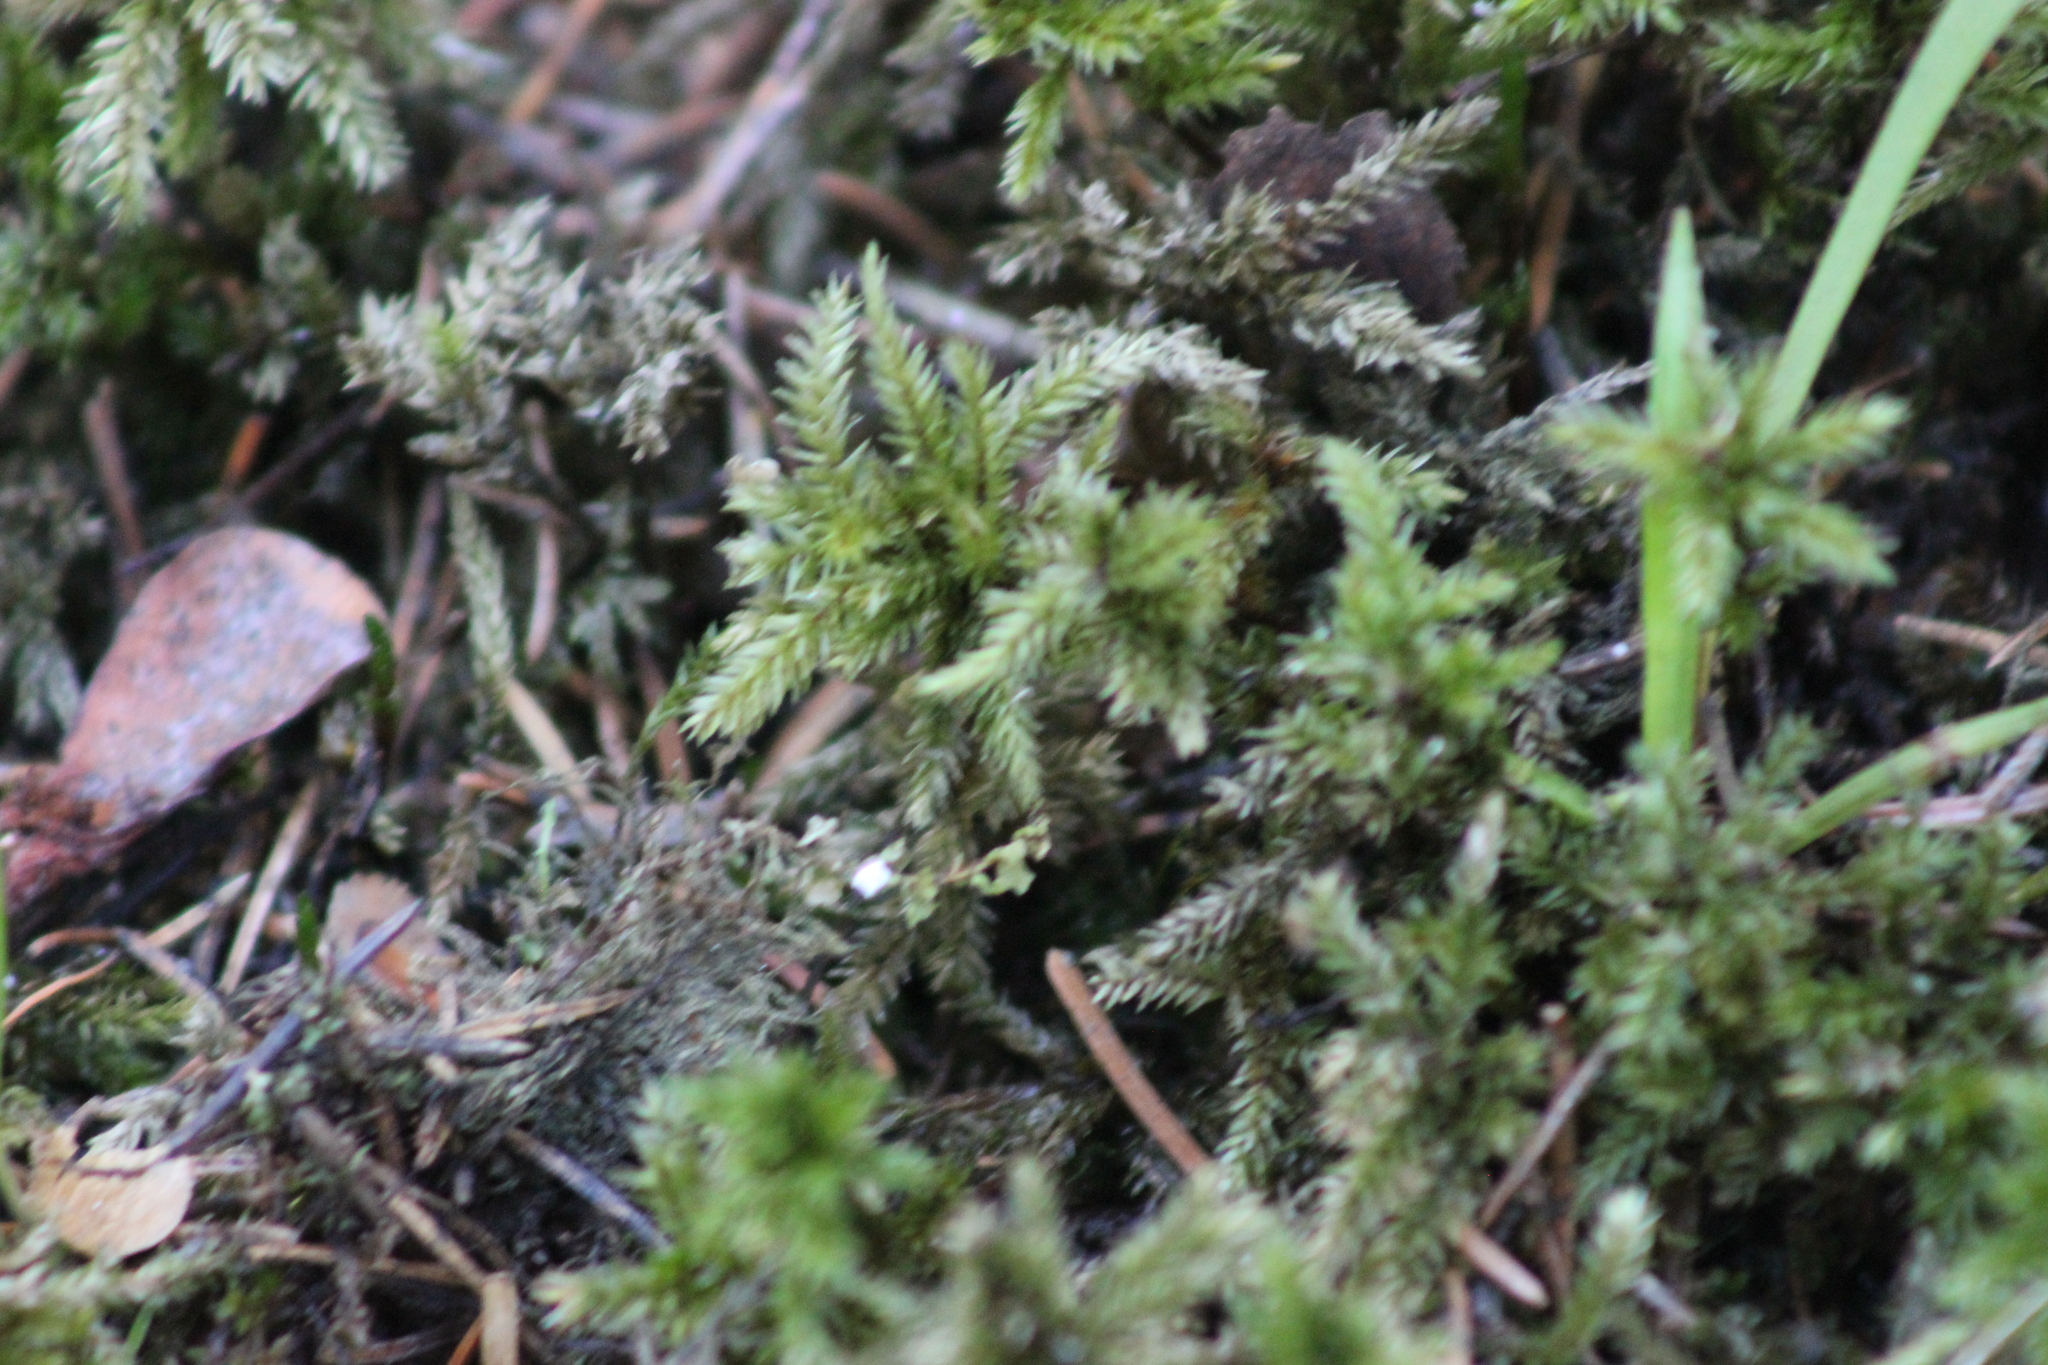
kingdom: Plantae
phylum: Bryophyta
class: Bryopsida
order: Hypnales
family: Climaciaceae
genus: Climacium
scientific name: Climacium dendroides
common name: Northern tree moss
